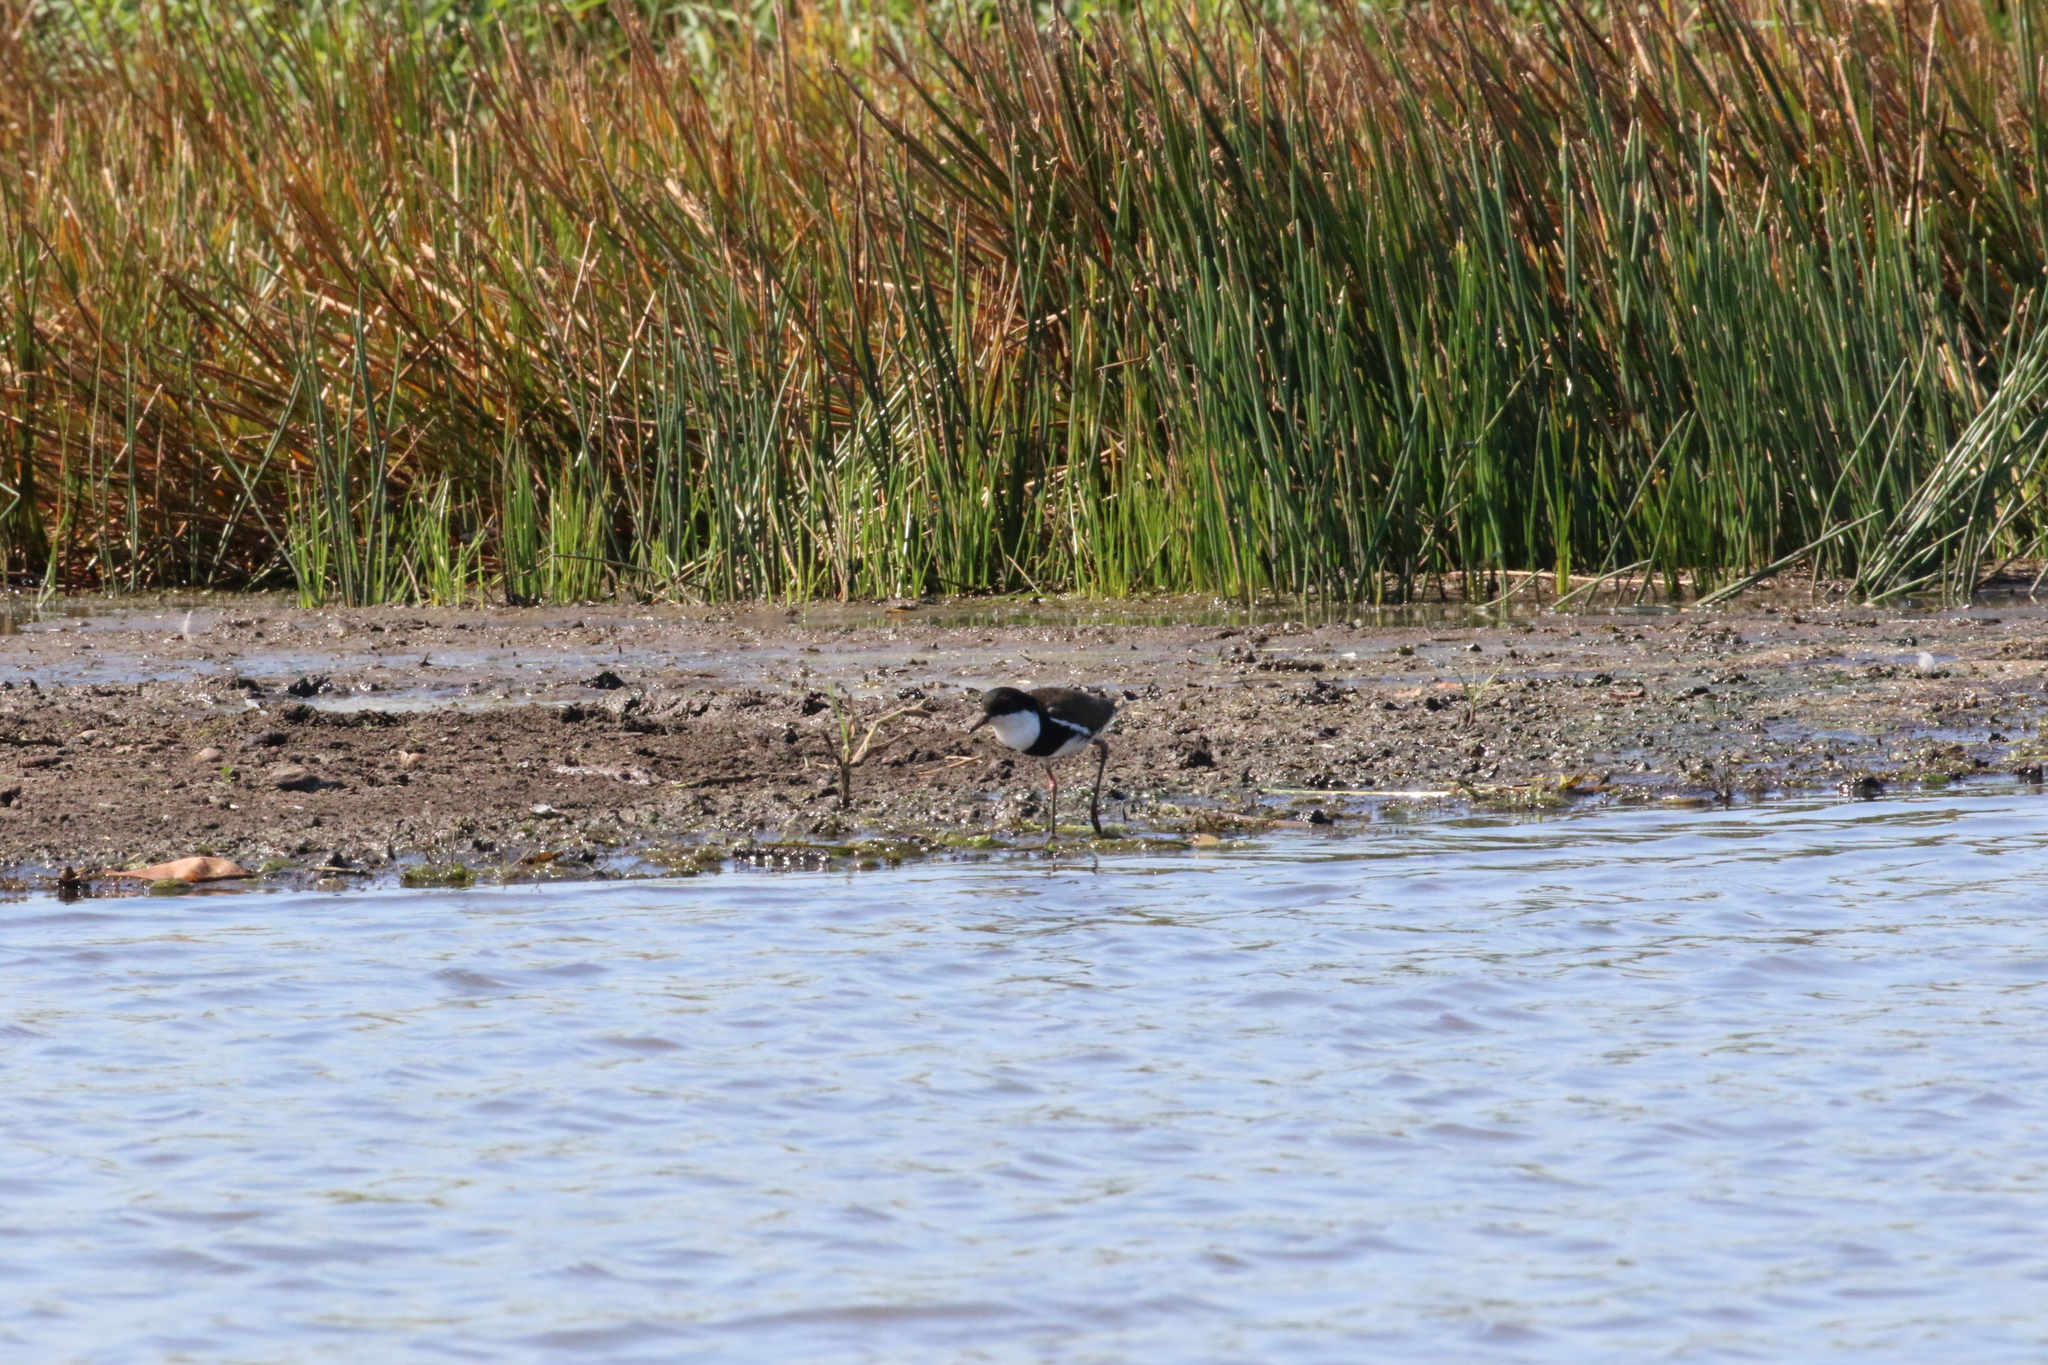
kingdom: Animalia
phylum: Chordata
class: Aves
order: Charadriiformes
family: Charadriidae
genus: Erythrogonys
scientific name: Erythrogonys cinctus
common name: Red-kneed dotterel
